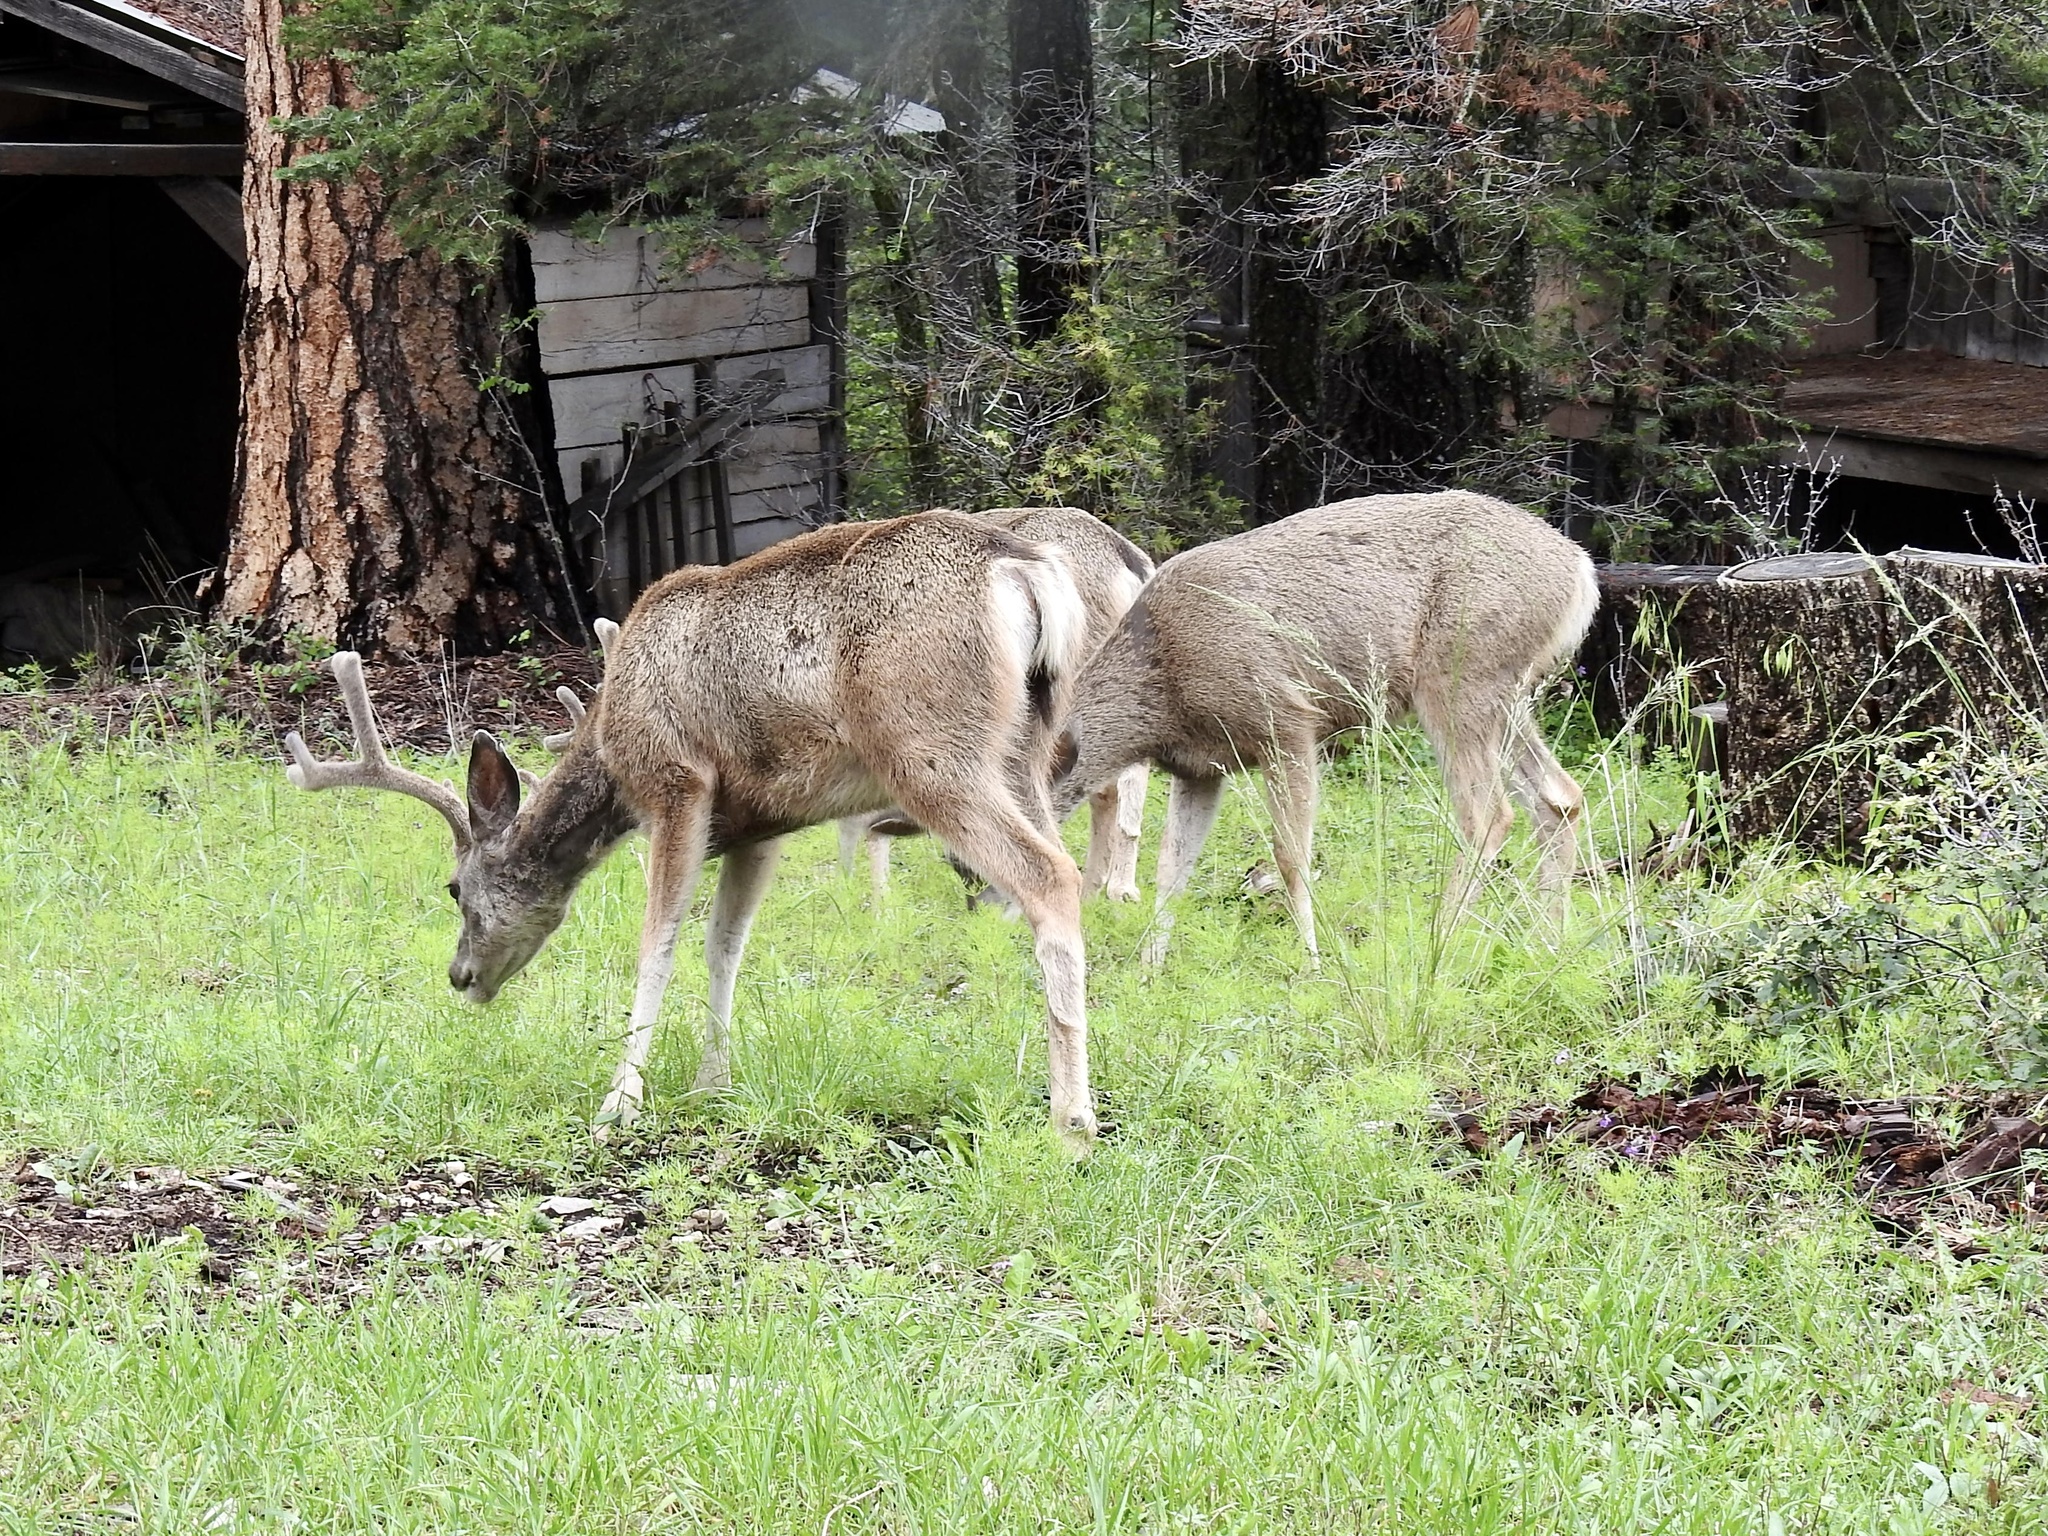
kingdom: Animalia
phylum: Chordata
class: Mammalia
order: Artiodactyla
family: Cervidae
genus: Odocoileus
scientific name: Odocoileus hemionus
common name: Mule deer
